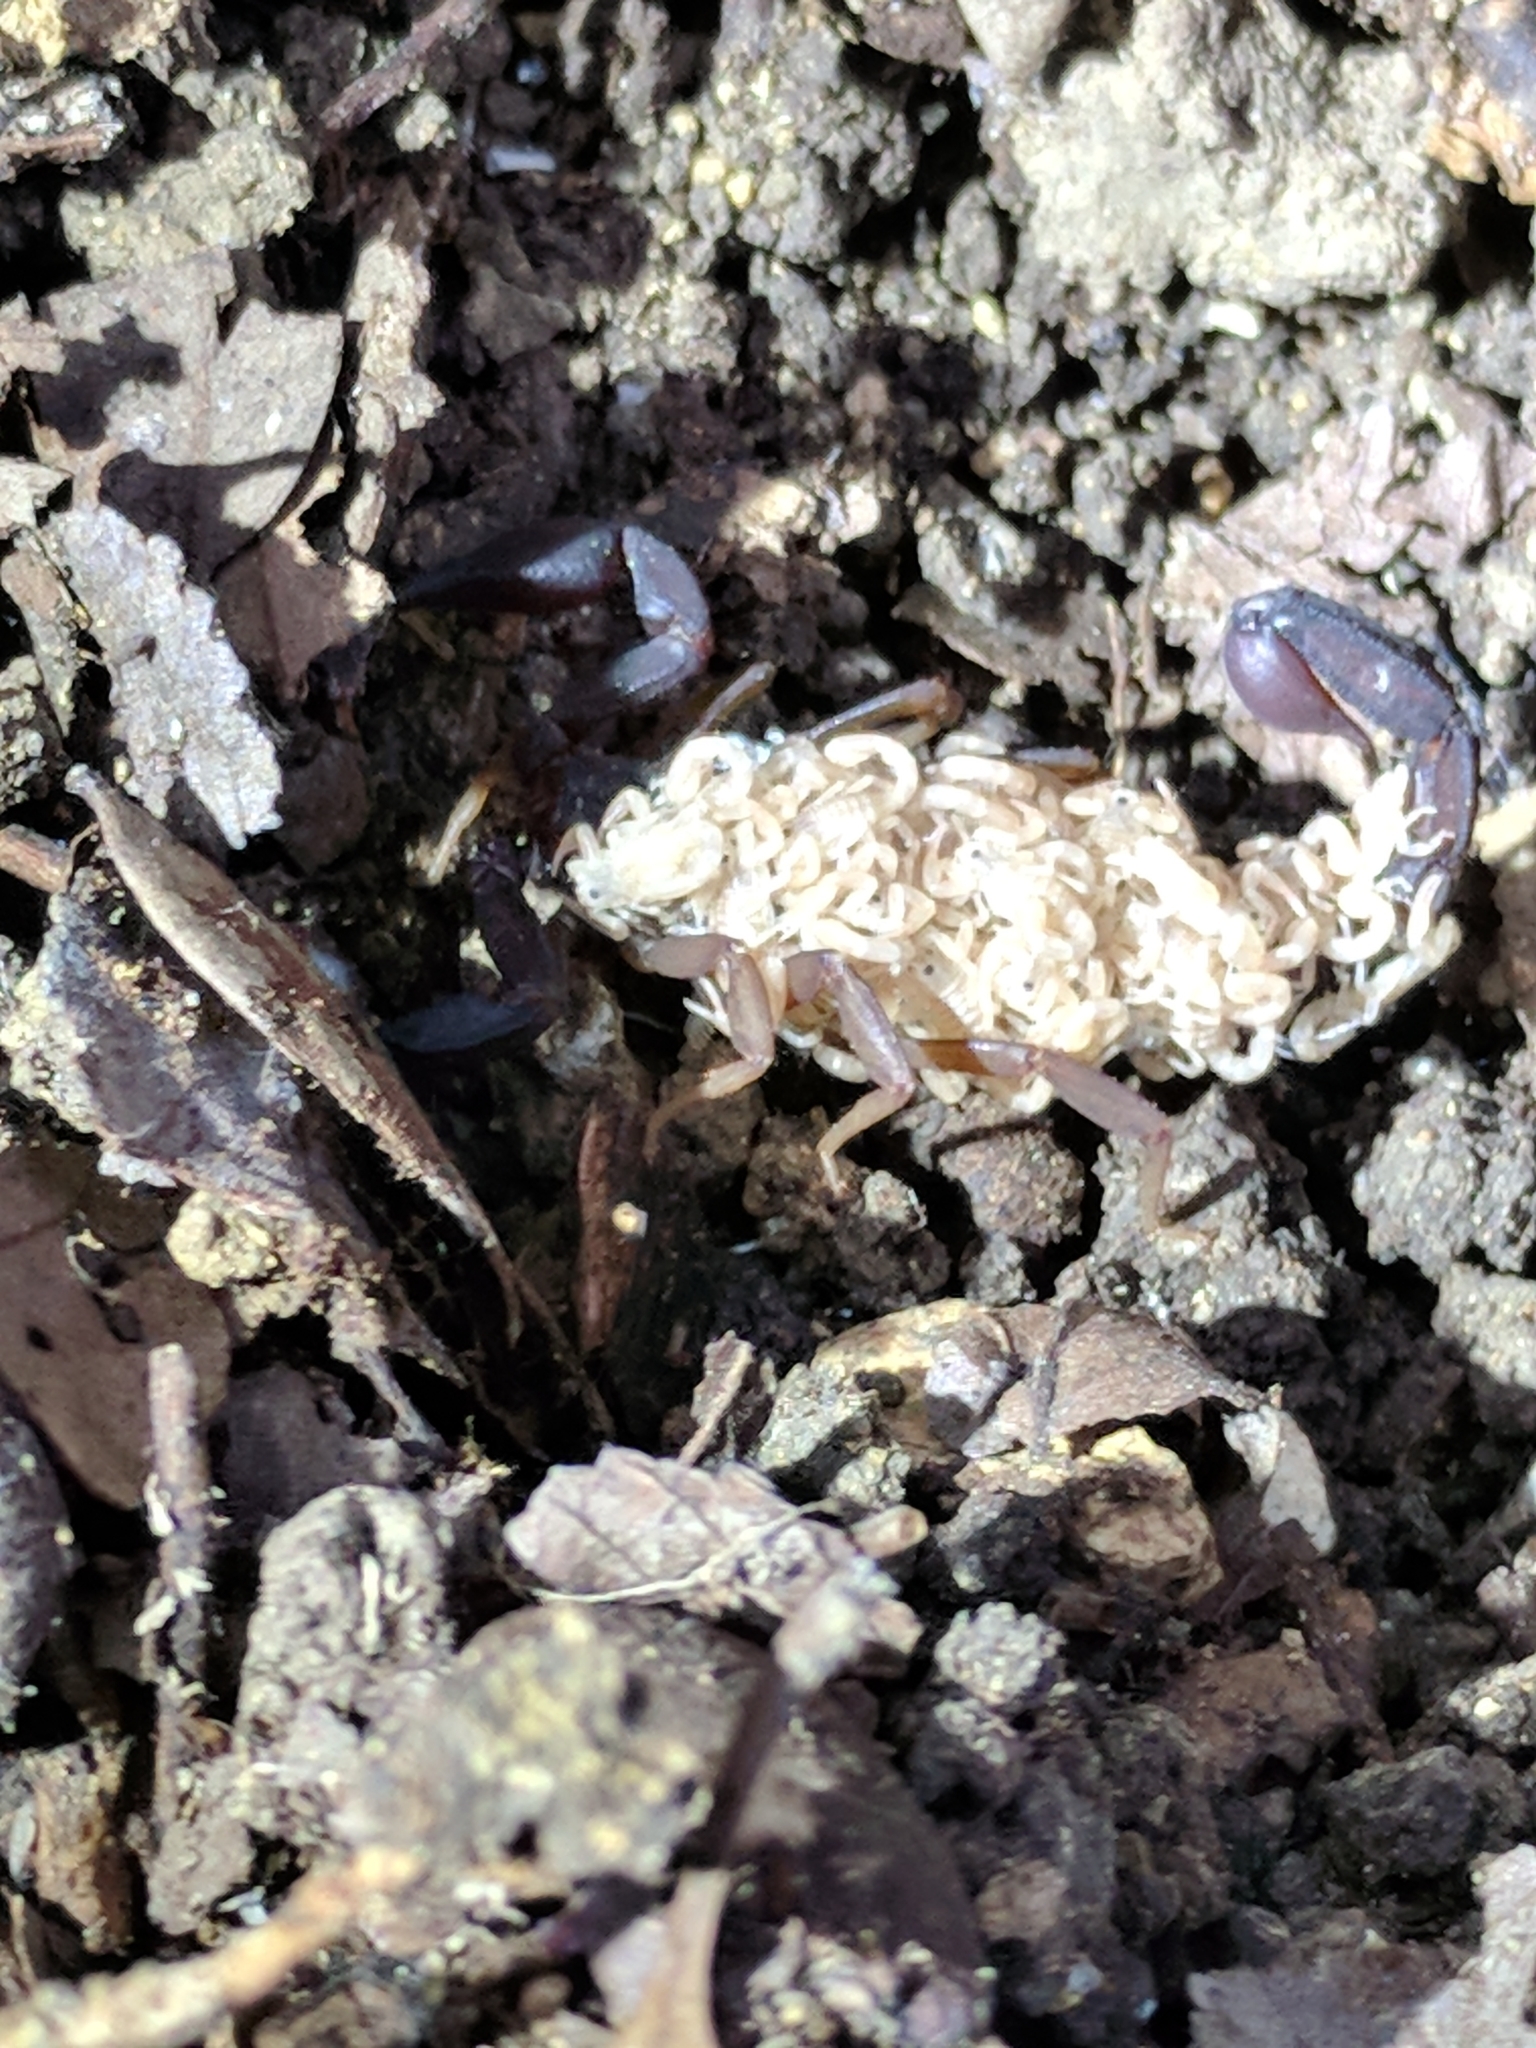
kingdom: Animalia
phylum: Arthropoda
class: Arachnida
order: Scorpiones
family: Vaejovidae
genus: Pseudouroctonus
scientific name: Pseudouroctonus reddelli
